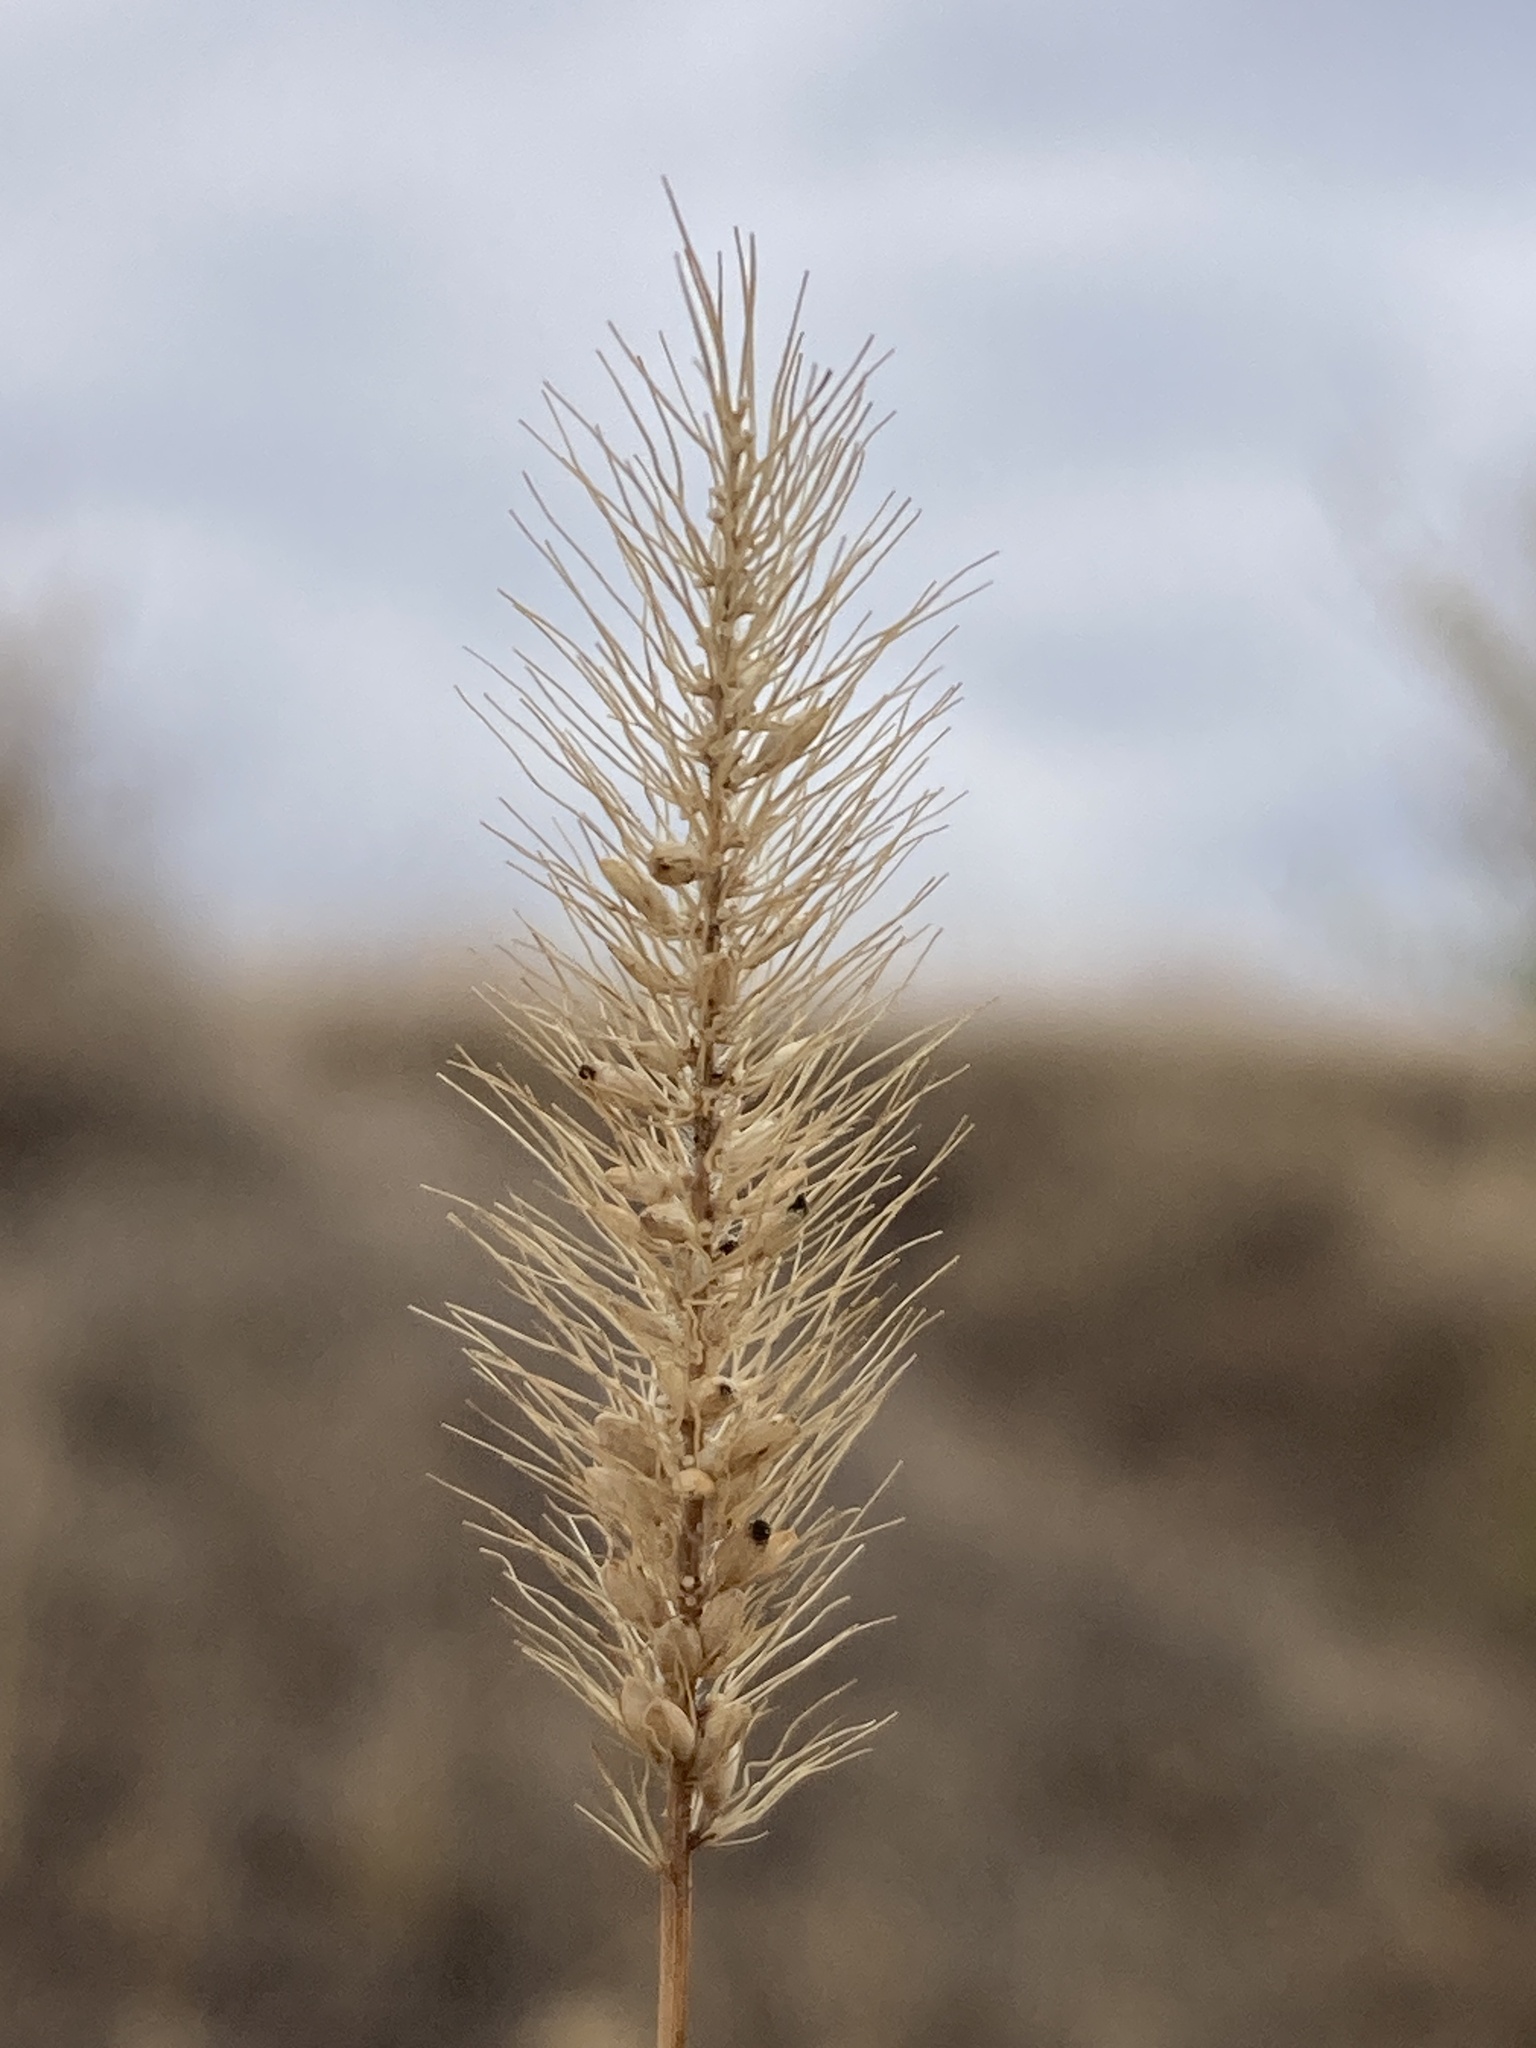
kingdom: Plantae
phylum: Tracheophyta
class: Liliopsida
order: Poales
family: Poaceae
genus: Setaria
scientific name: Setaria viridis
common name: Green bristlegrass
